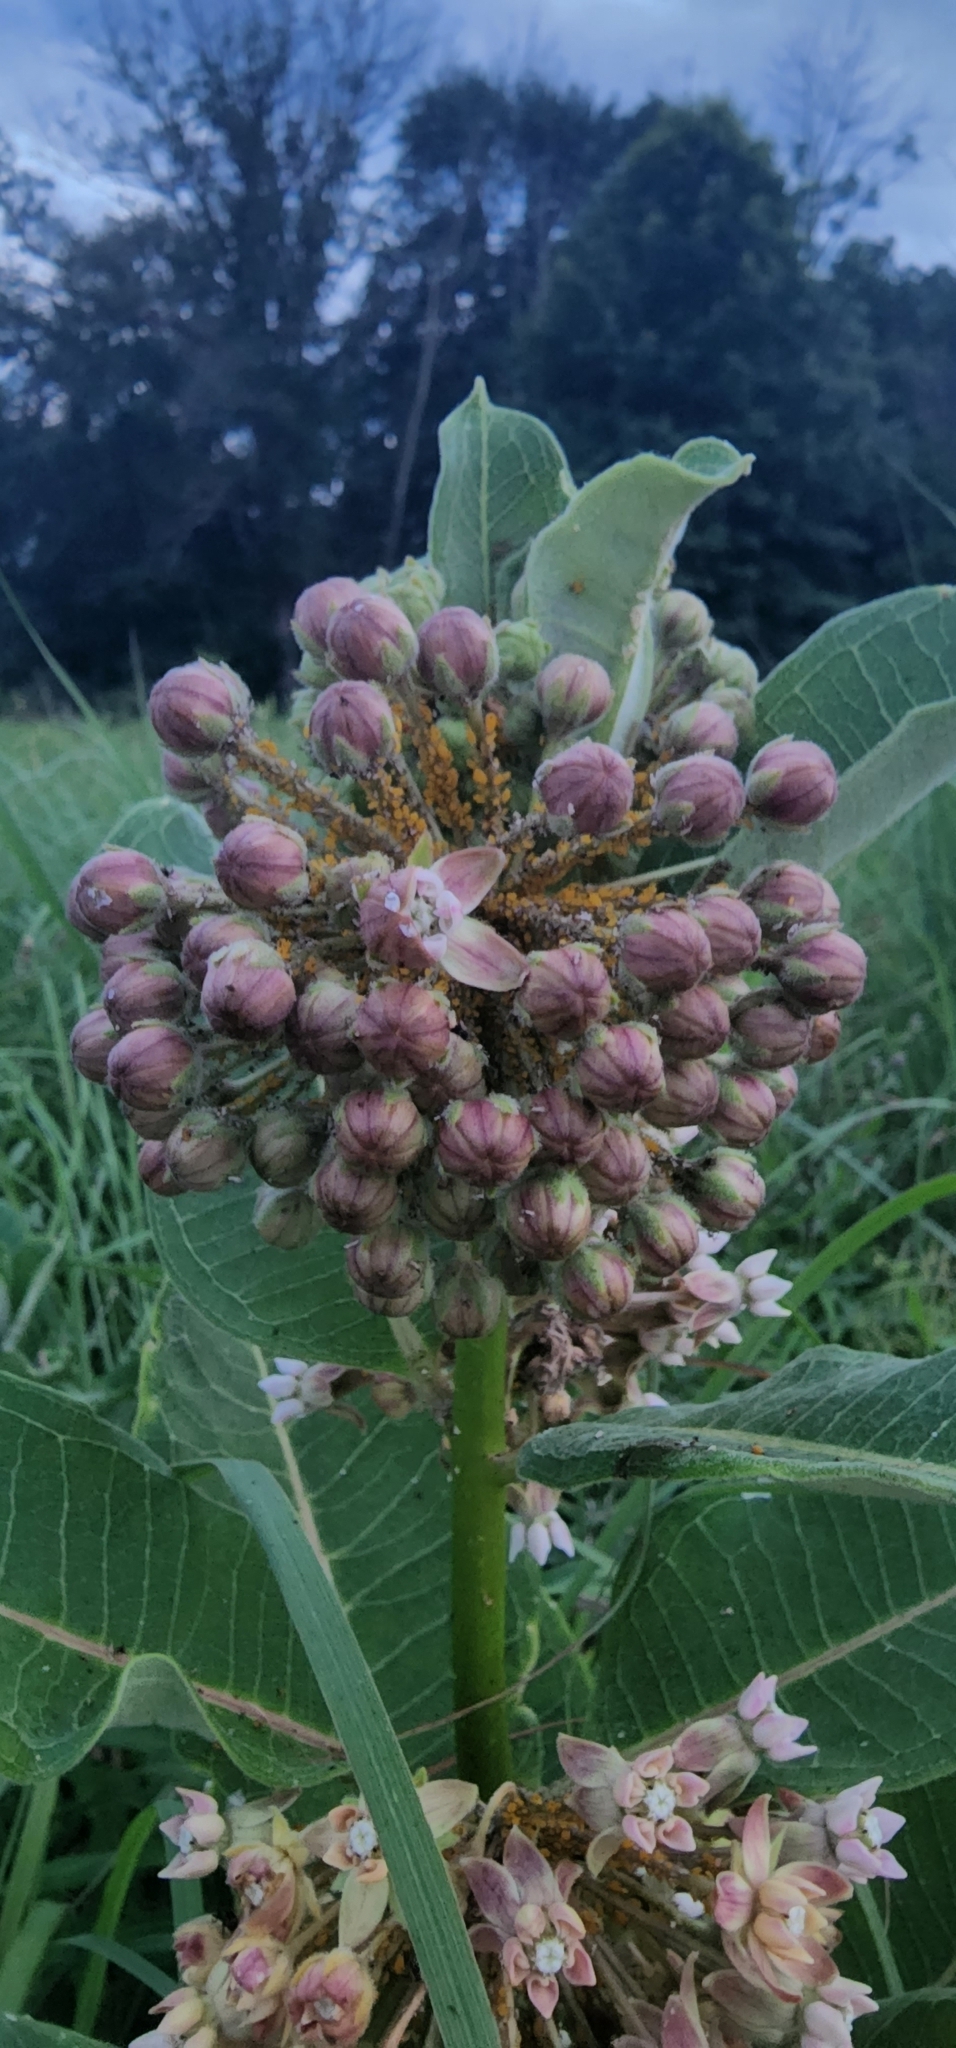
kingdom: Animalia
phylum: Arthropoda
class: Insecta
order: Hemiptera
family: Aphididae
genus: Aphis
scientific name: Aphis nerii
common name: Oleander aphid
